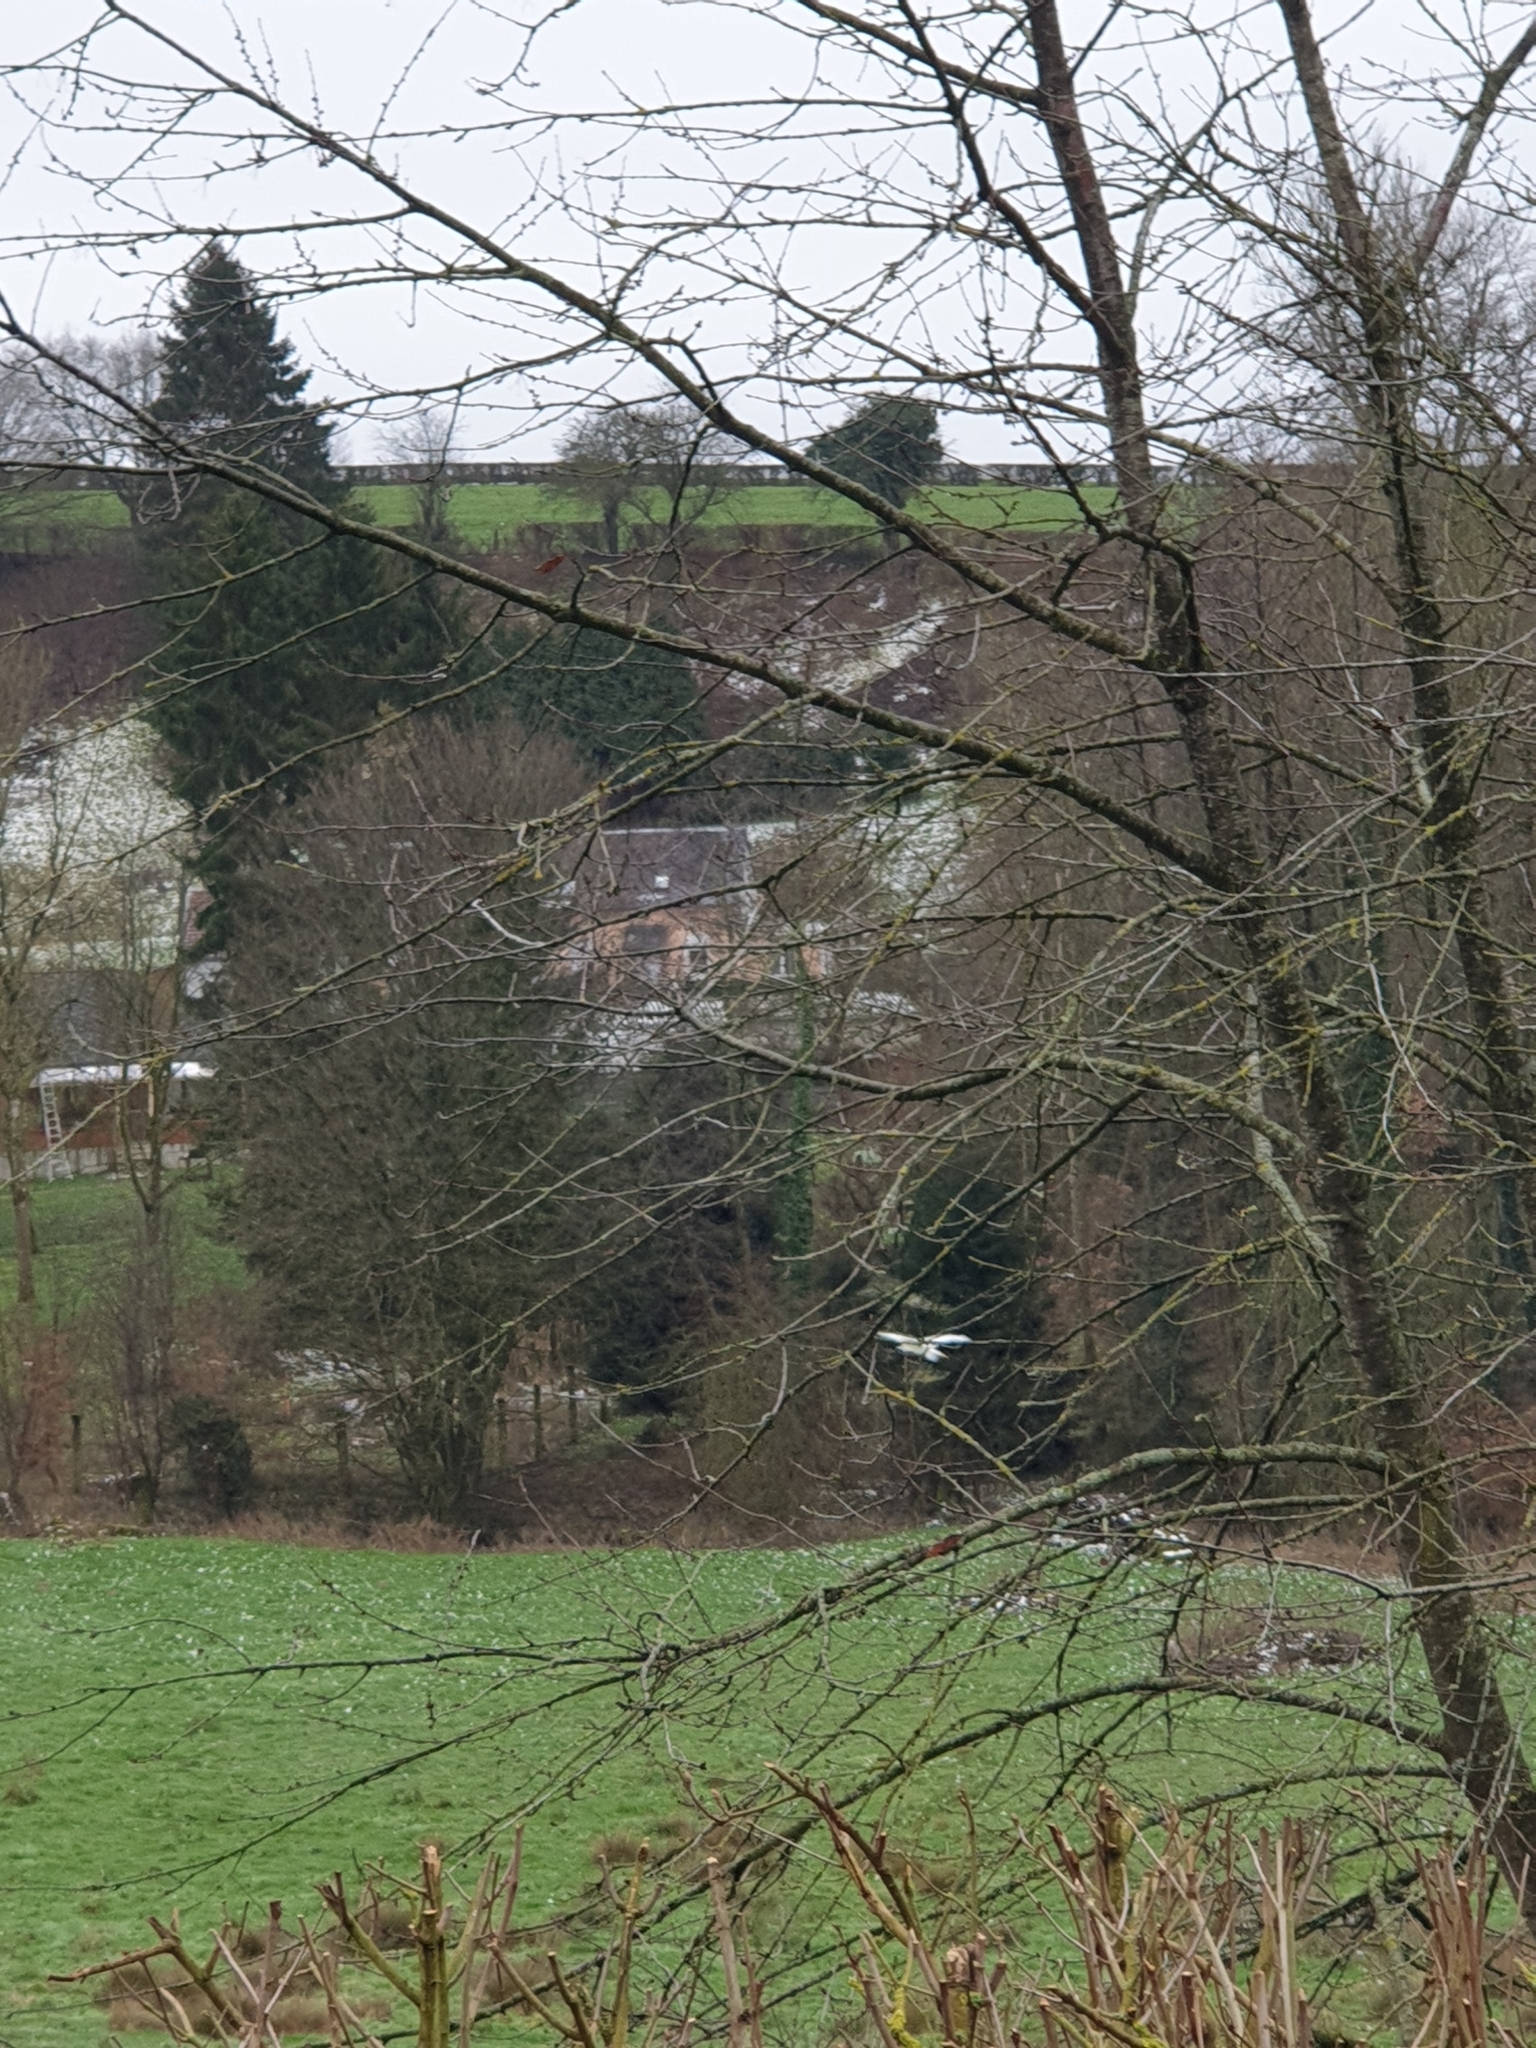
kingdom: Animalia
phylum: Chordata
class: Aves
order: Pelecaniformes
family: Ardeidae
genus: Ardea
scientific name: Ardea alba
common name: Great egret
